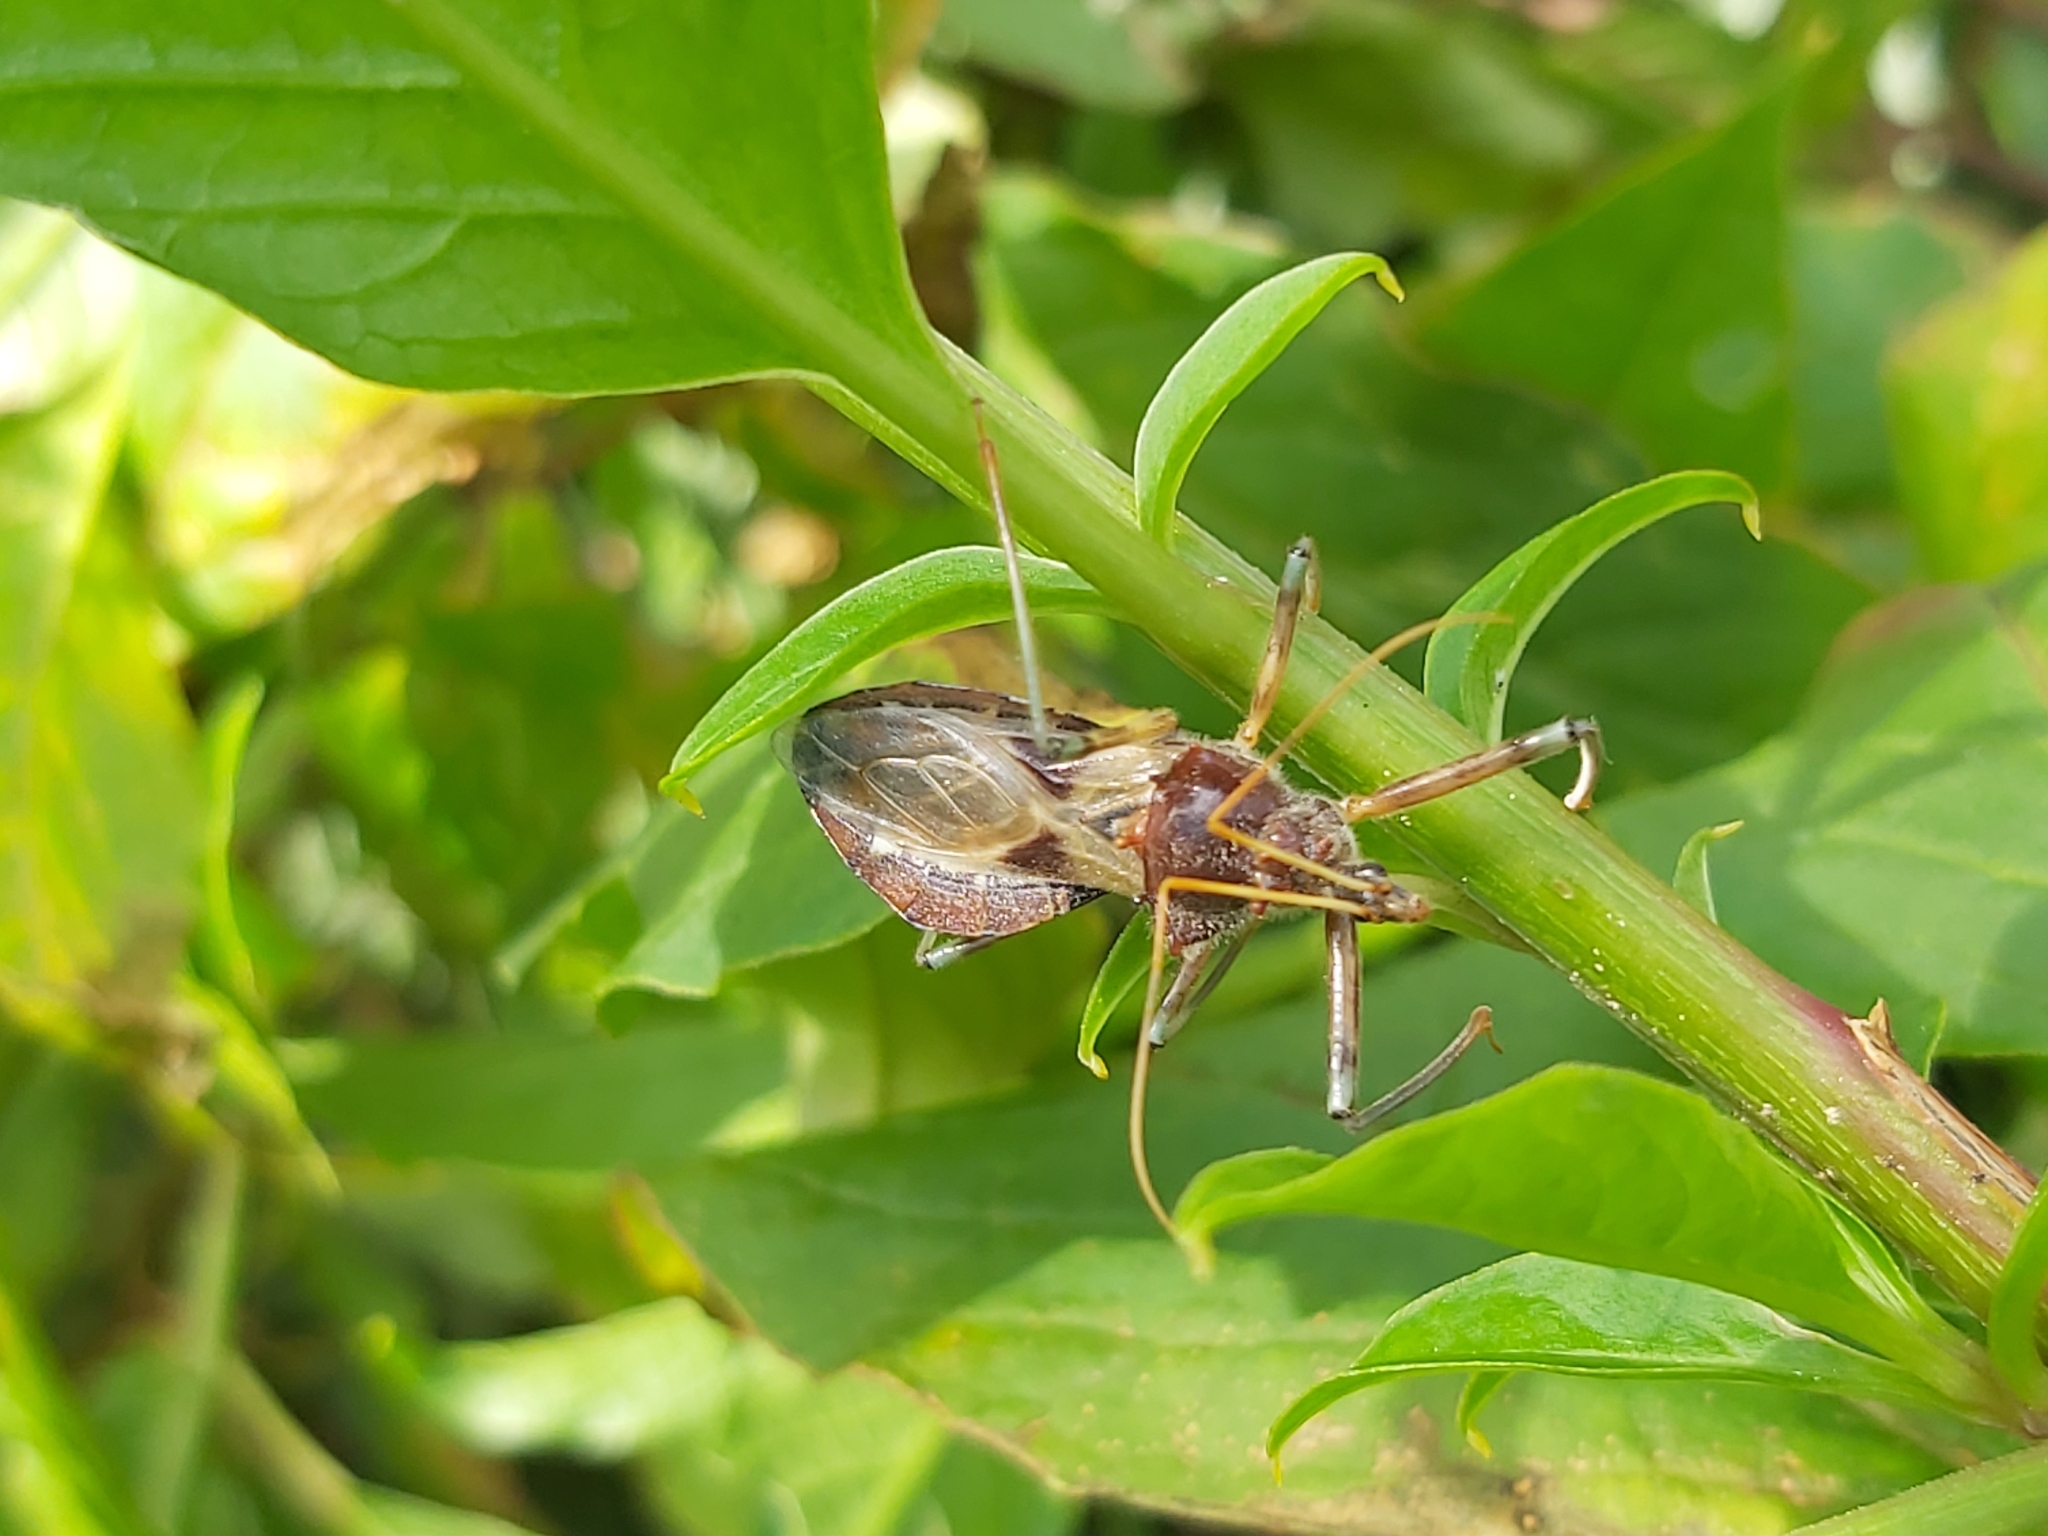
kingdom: Animalia
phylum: Arthropoda
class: Insecta
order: Hemiptera
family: Reduviidae
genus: Pristhesancus
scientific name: Pristhesancus plagipennis
